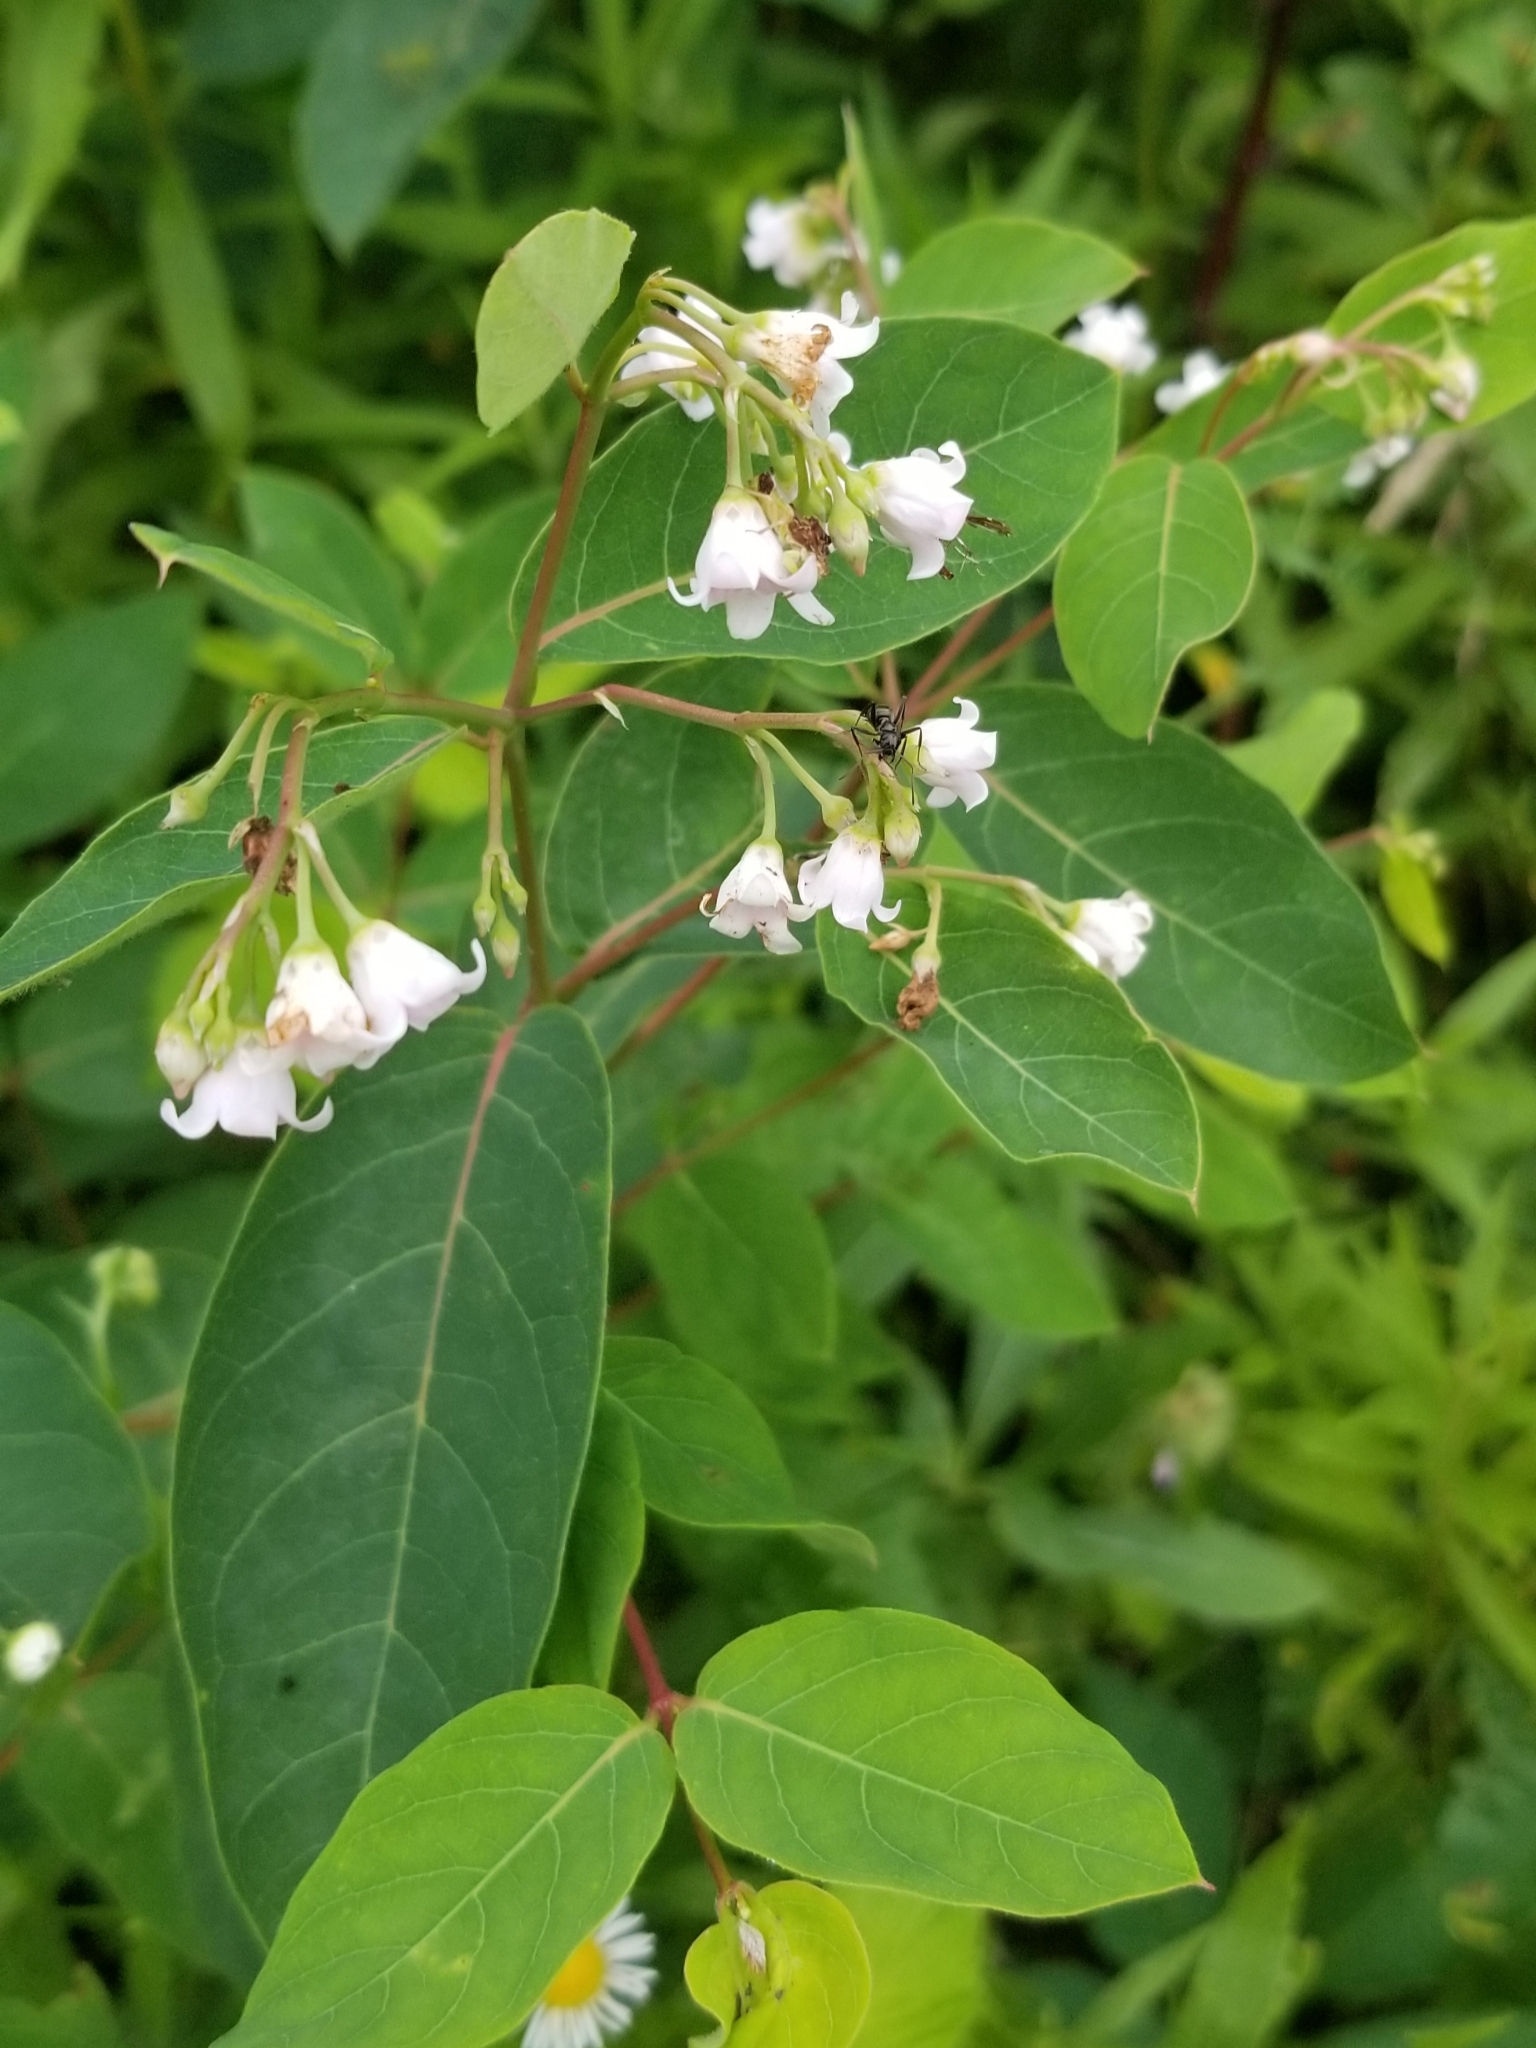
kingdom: Plantae
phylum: Tracheophyta
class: Magnoliopsida
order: Gentianales
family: Apocynaceae
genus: Apocynum
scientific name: Apocynum androsaemifolium
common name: Spreading dogbane
